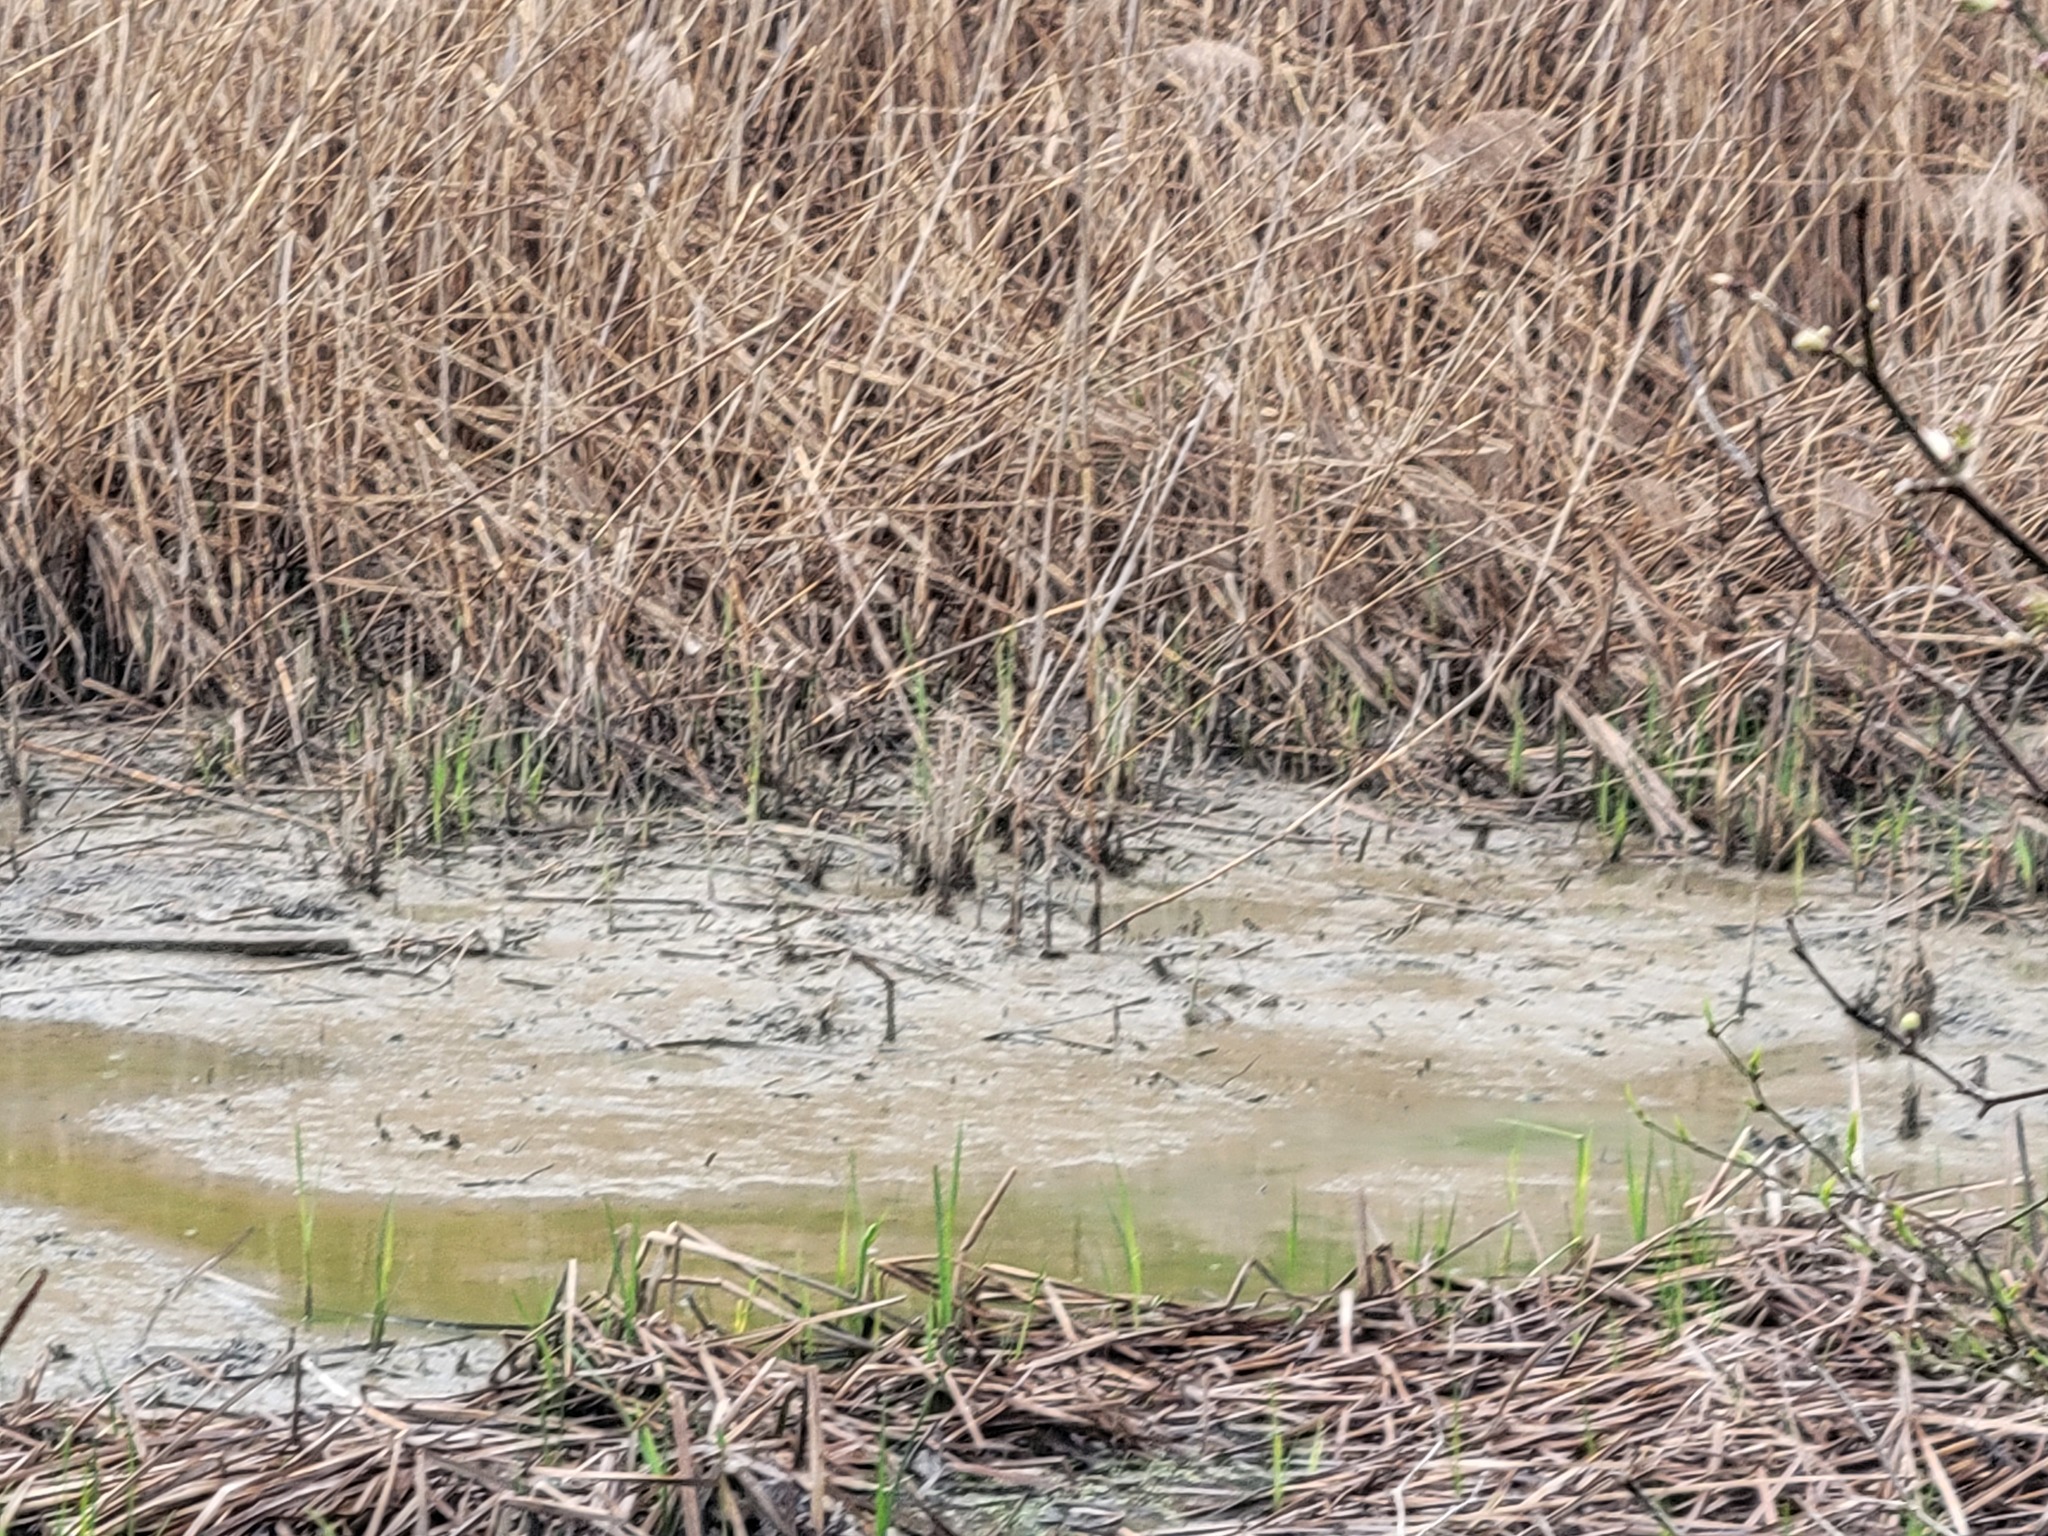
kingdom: Animalia
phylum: Chordata
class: Aves
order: Charadriiformes
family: Scolopacidae
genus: Tringa
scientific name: Tringa solitaria
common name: Solitary sandpiper
